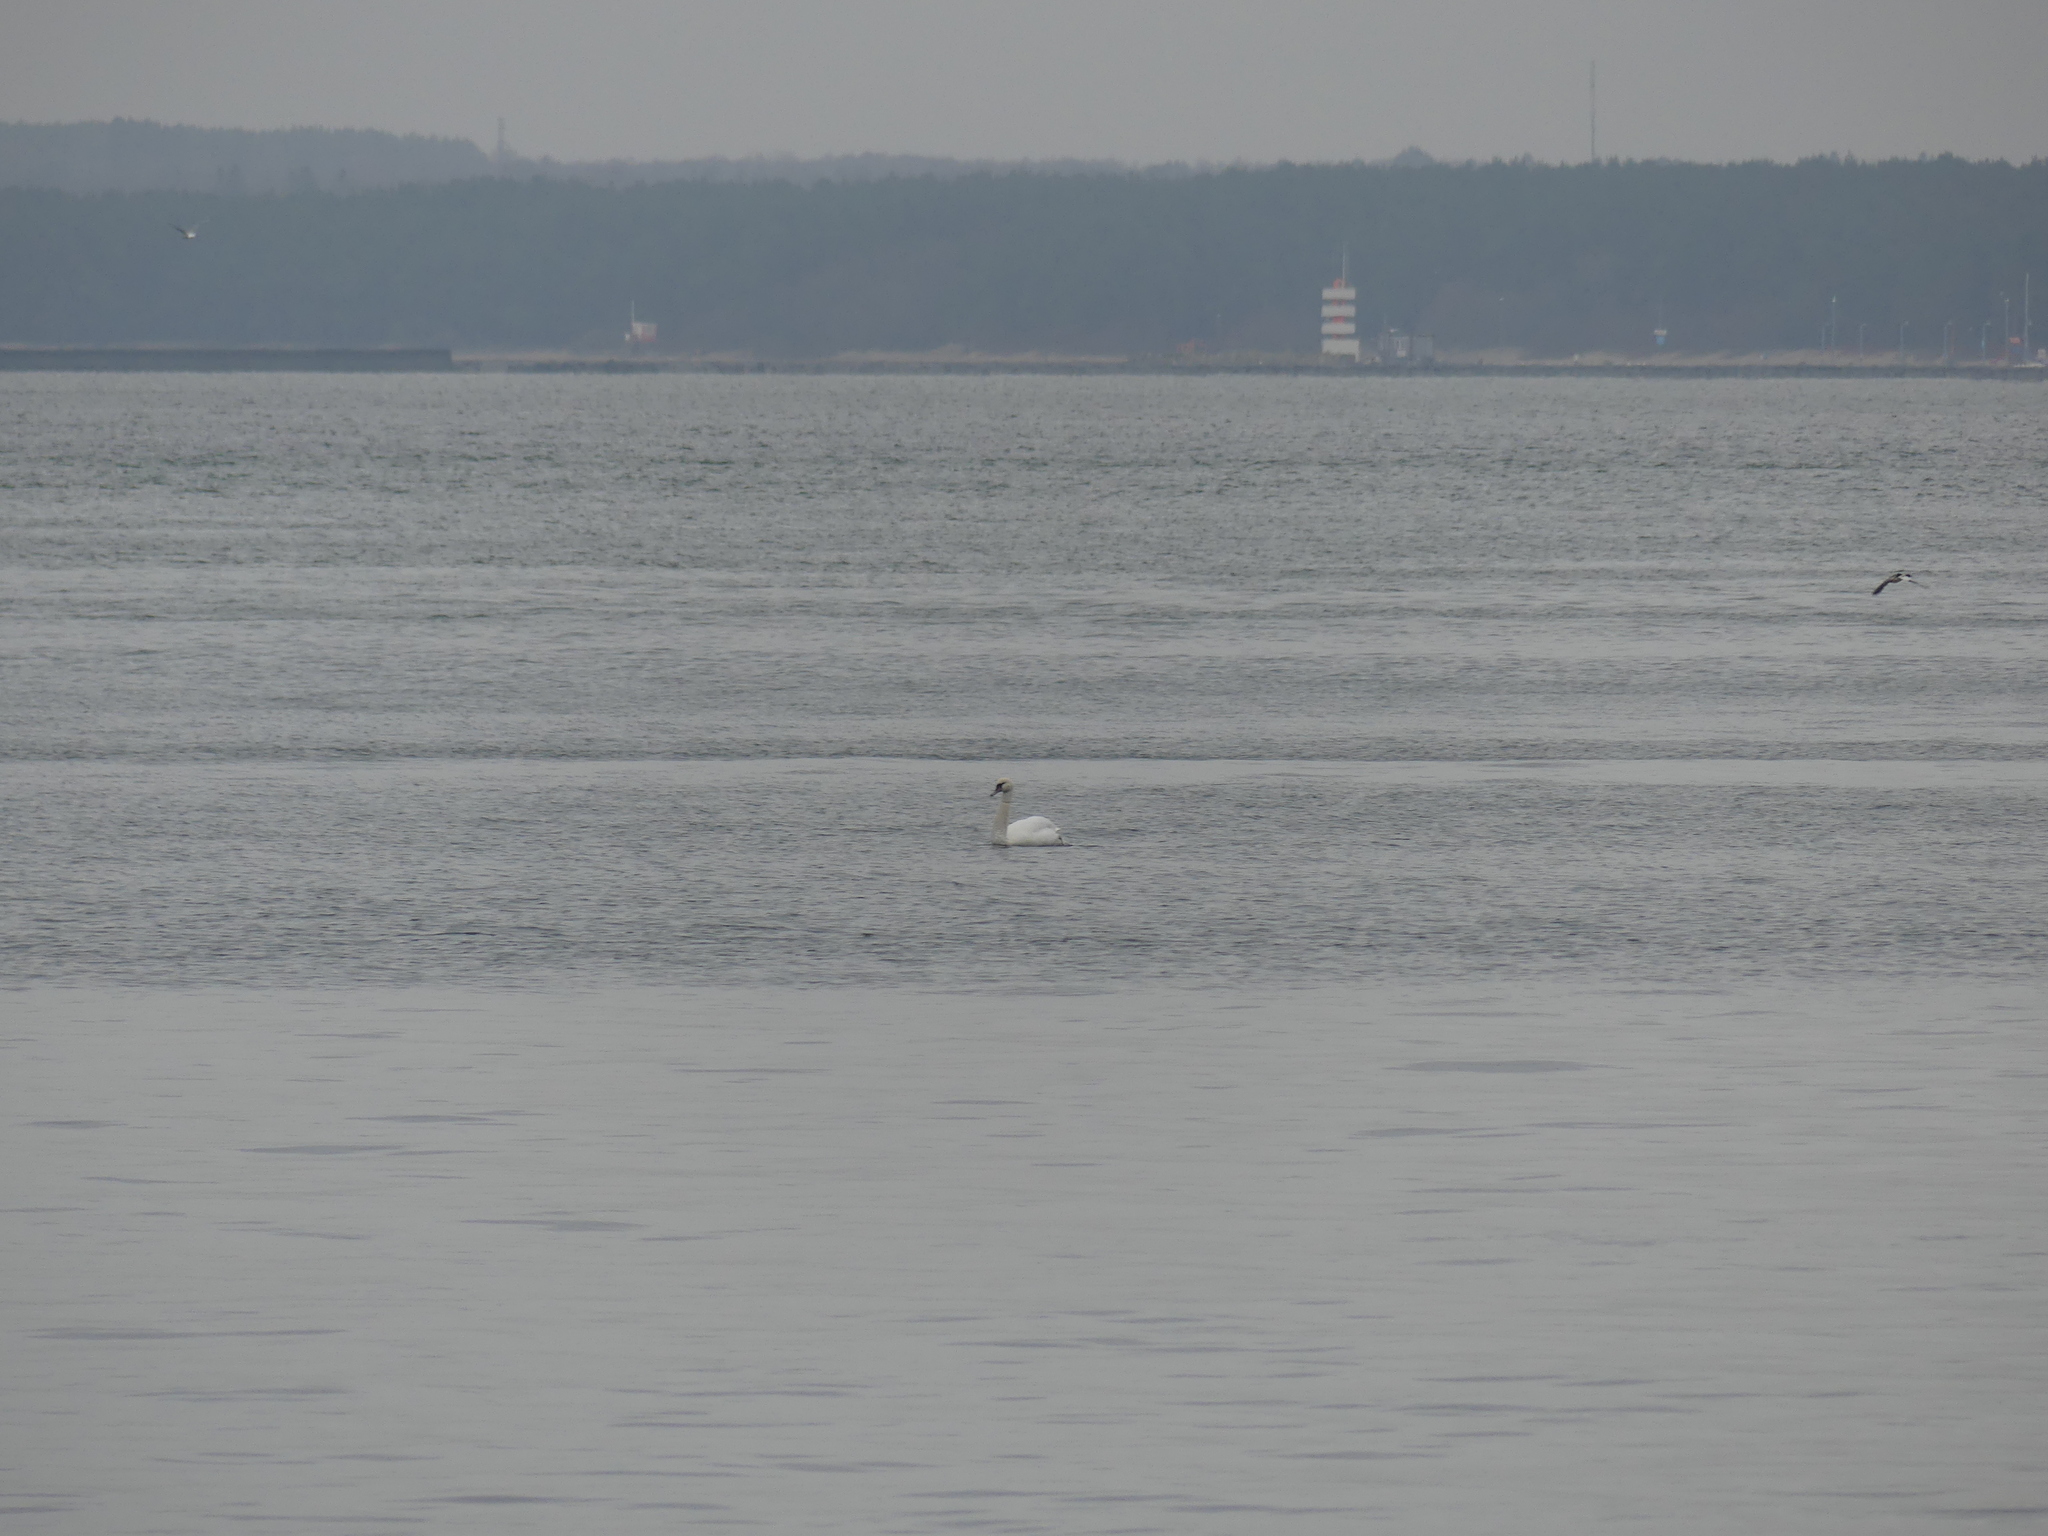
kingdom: Animalia
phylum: Chordata
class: Aves
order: Anseriformes
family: Anatidae
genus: Cygnus
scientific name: Cygnus olor
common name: Mute swan
